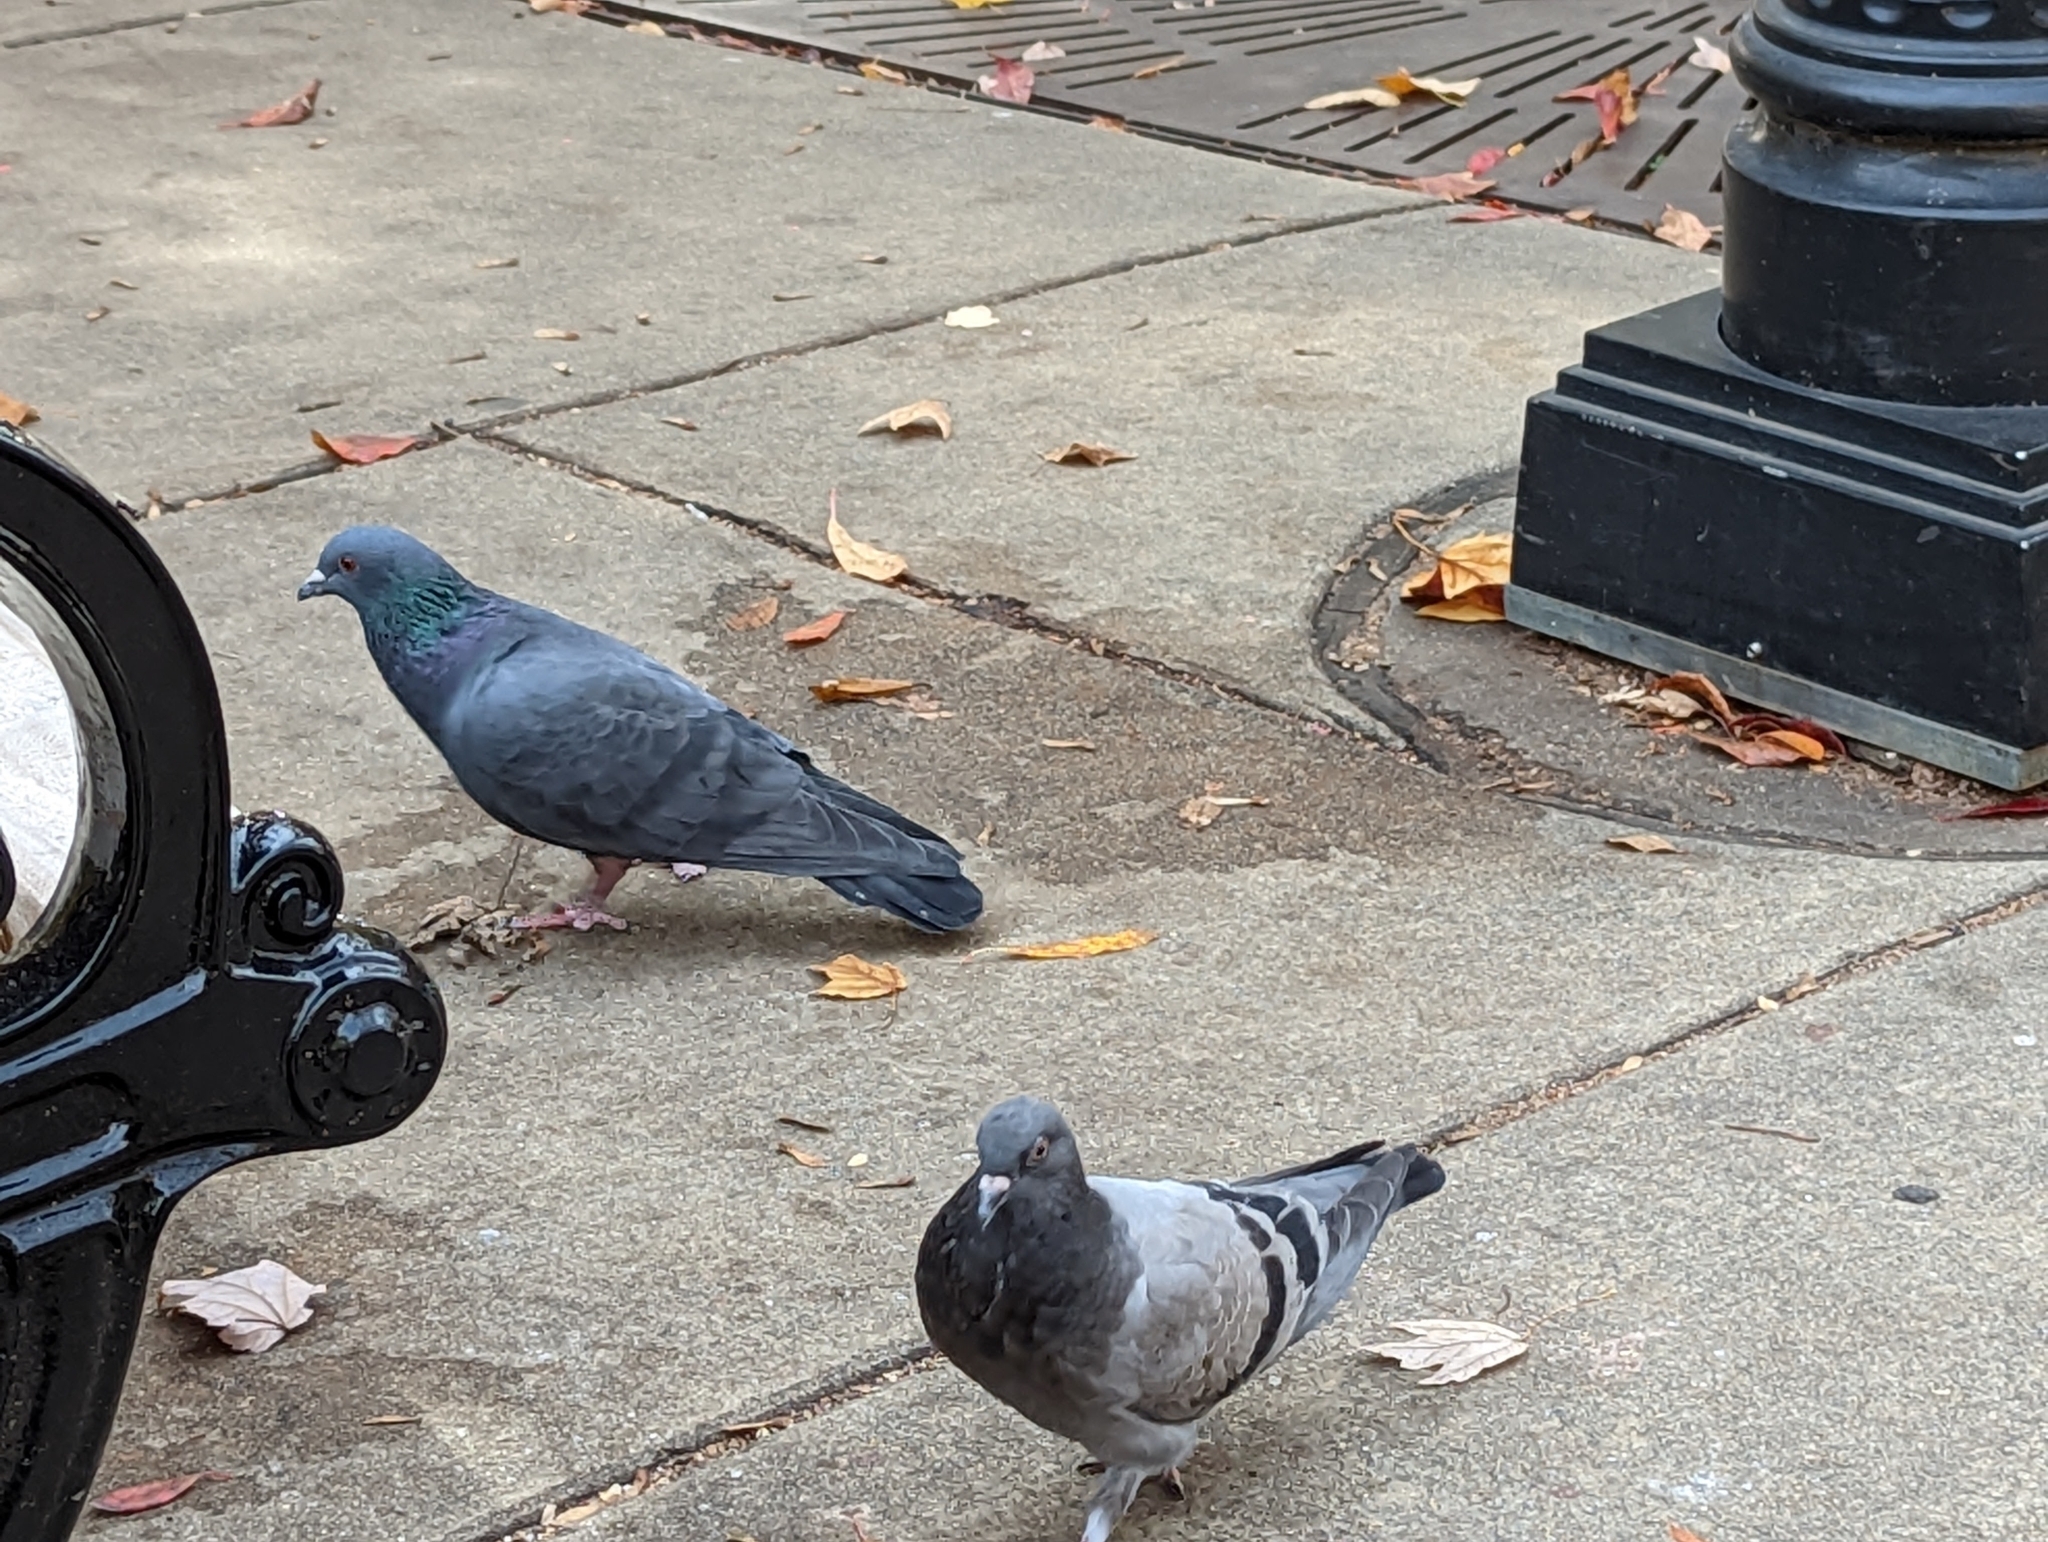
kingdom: Animalia
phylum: Chordata
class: Aves
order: Columbiformes
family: Columbidae
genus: Columba
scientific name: Columba livia
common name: Rock pigeon
